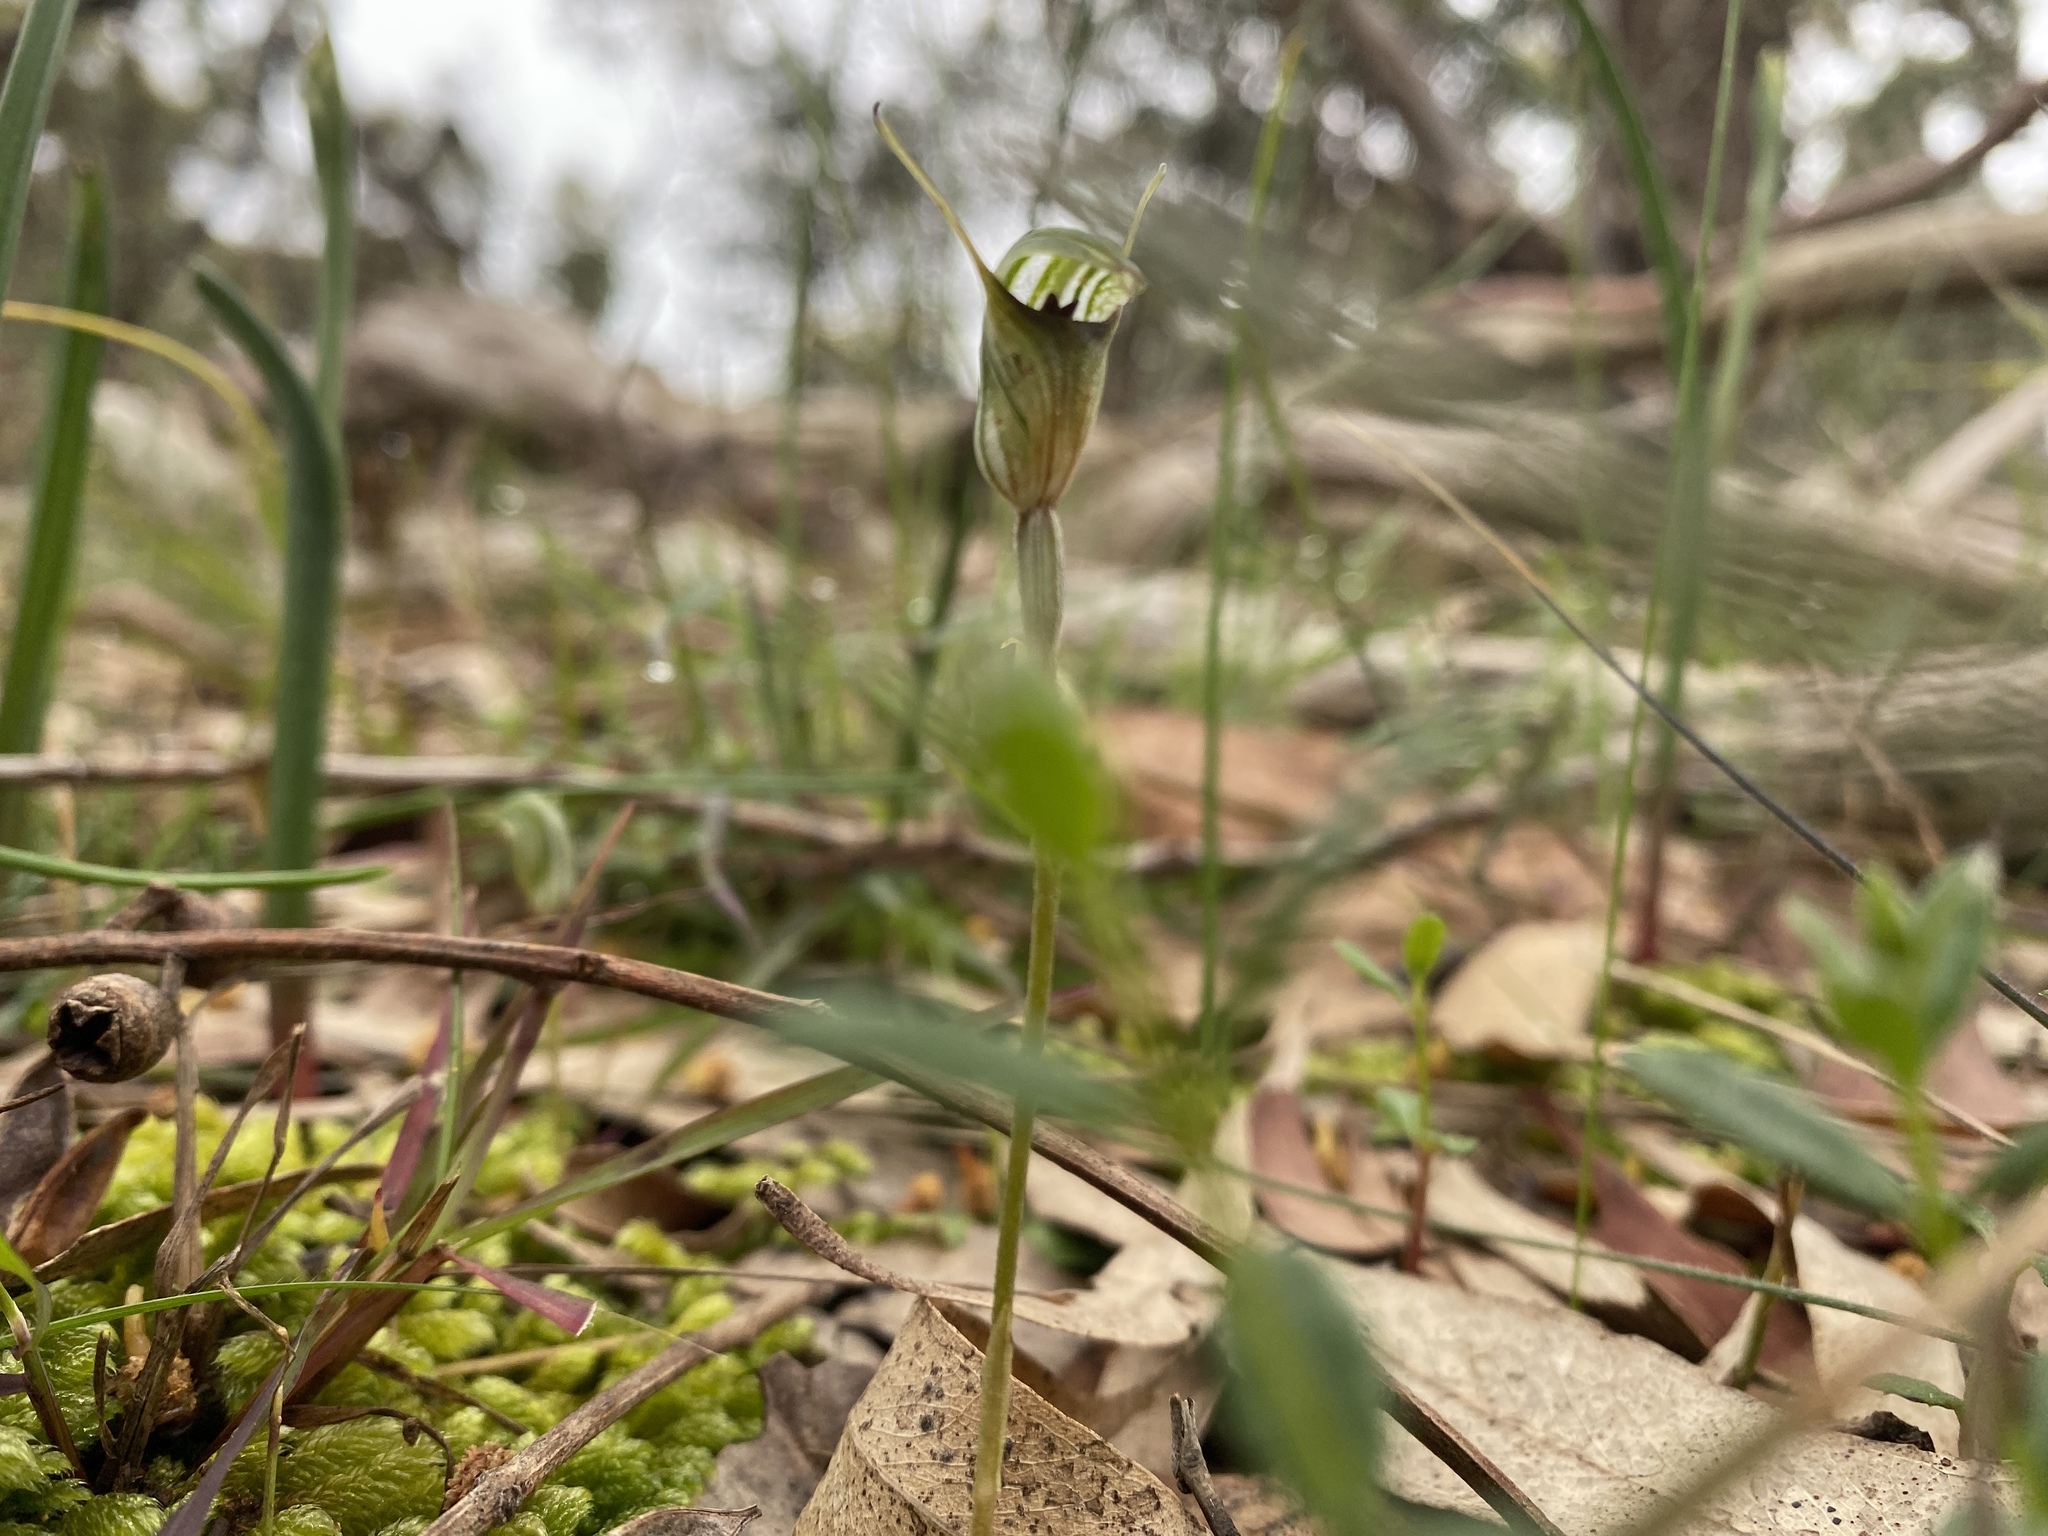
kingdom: Plantae
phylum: Tracheophyta
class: Liliopsida
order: Asparagales
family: Orchidaceae
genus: Pterostylis
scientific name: Pterostylis concinna
